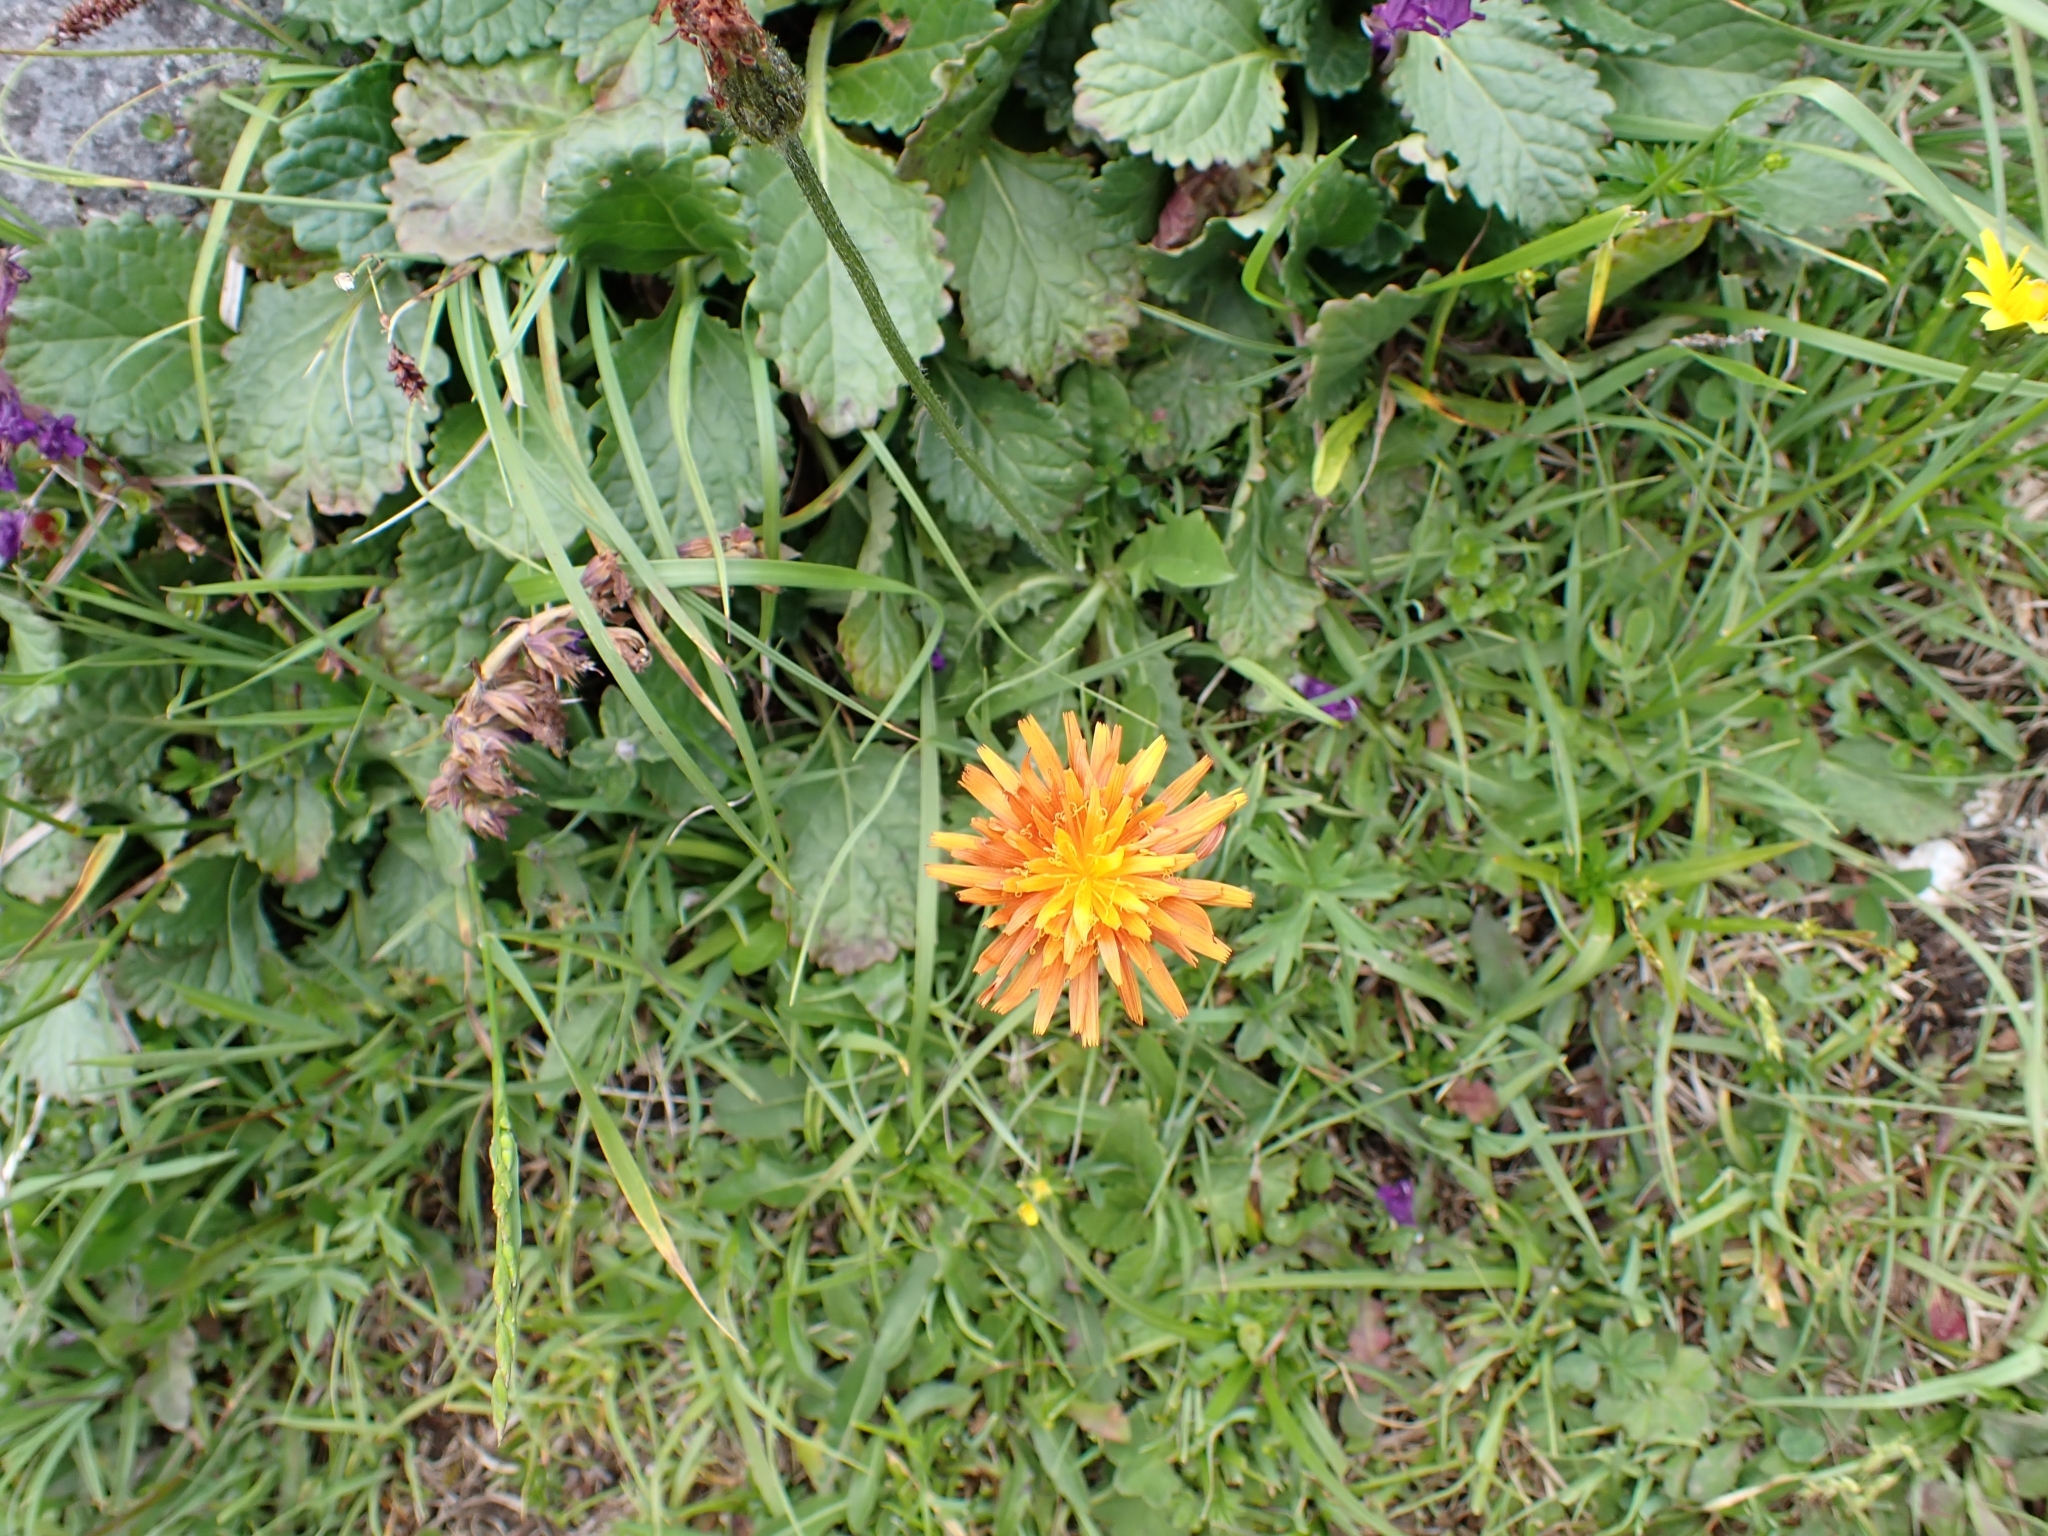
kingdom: Plantae
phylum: Tracheophyta
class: Magnoliopsida
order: Asterales
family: Asteraceae
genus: Crepis
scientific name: Crepis aurea
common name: Golden hawk's-beard
